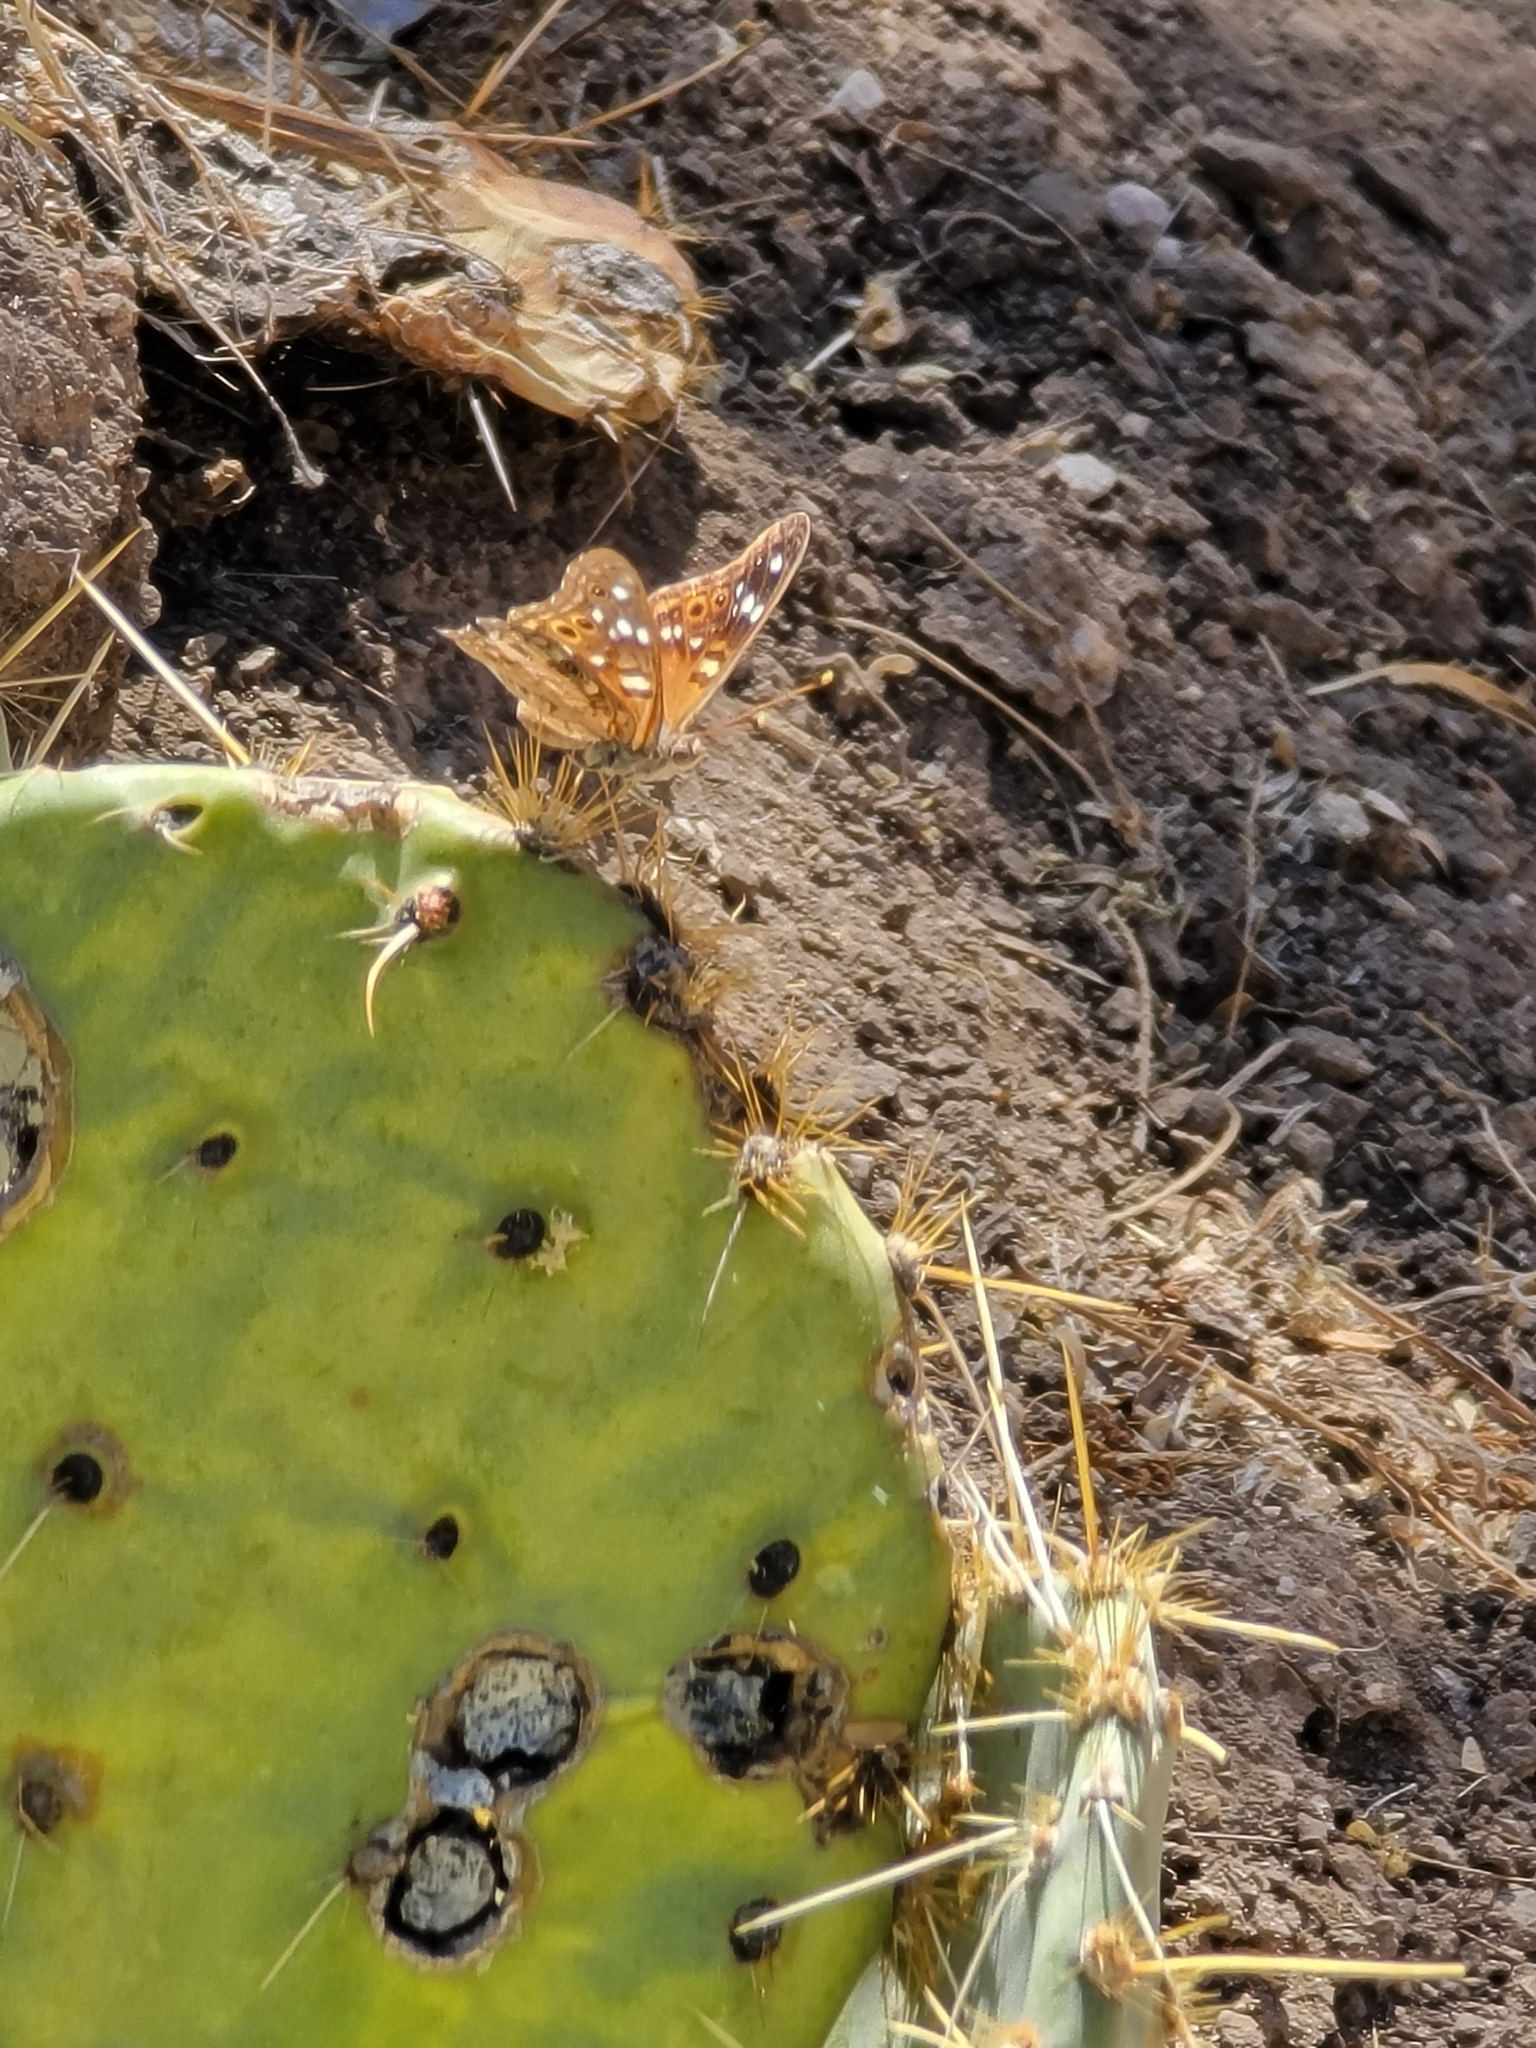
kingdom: Animalia
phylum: Arthropoda
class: Insecta
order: Lepidoptera
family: Nymphalidae
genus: Asterocampa
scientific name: Asterocampa leilia
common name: Empress leilia
